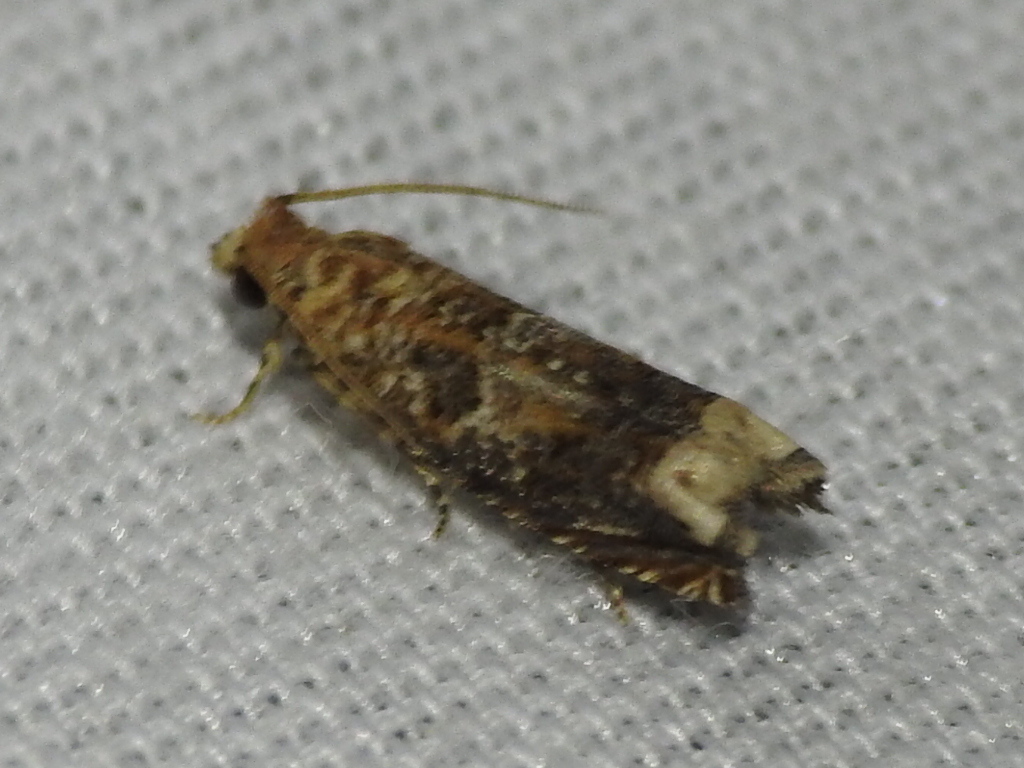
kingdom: Animalia
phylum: Arthropoda
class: Insecta
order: Lepidoptera
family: Tortricidae
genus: Epiblema
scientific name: Epiblema abruptana
